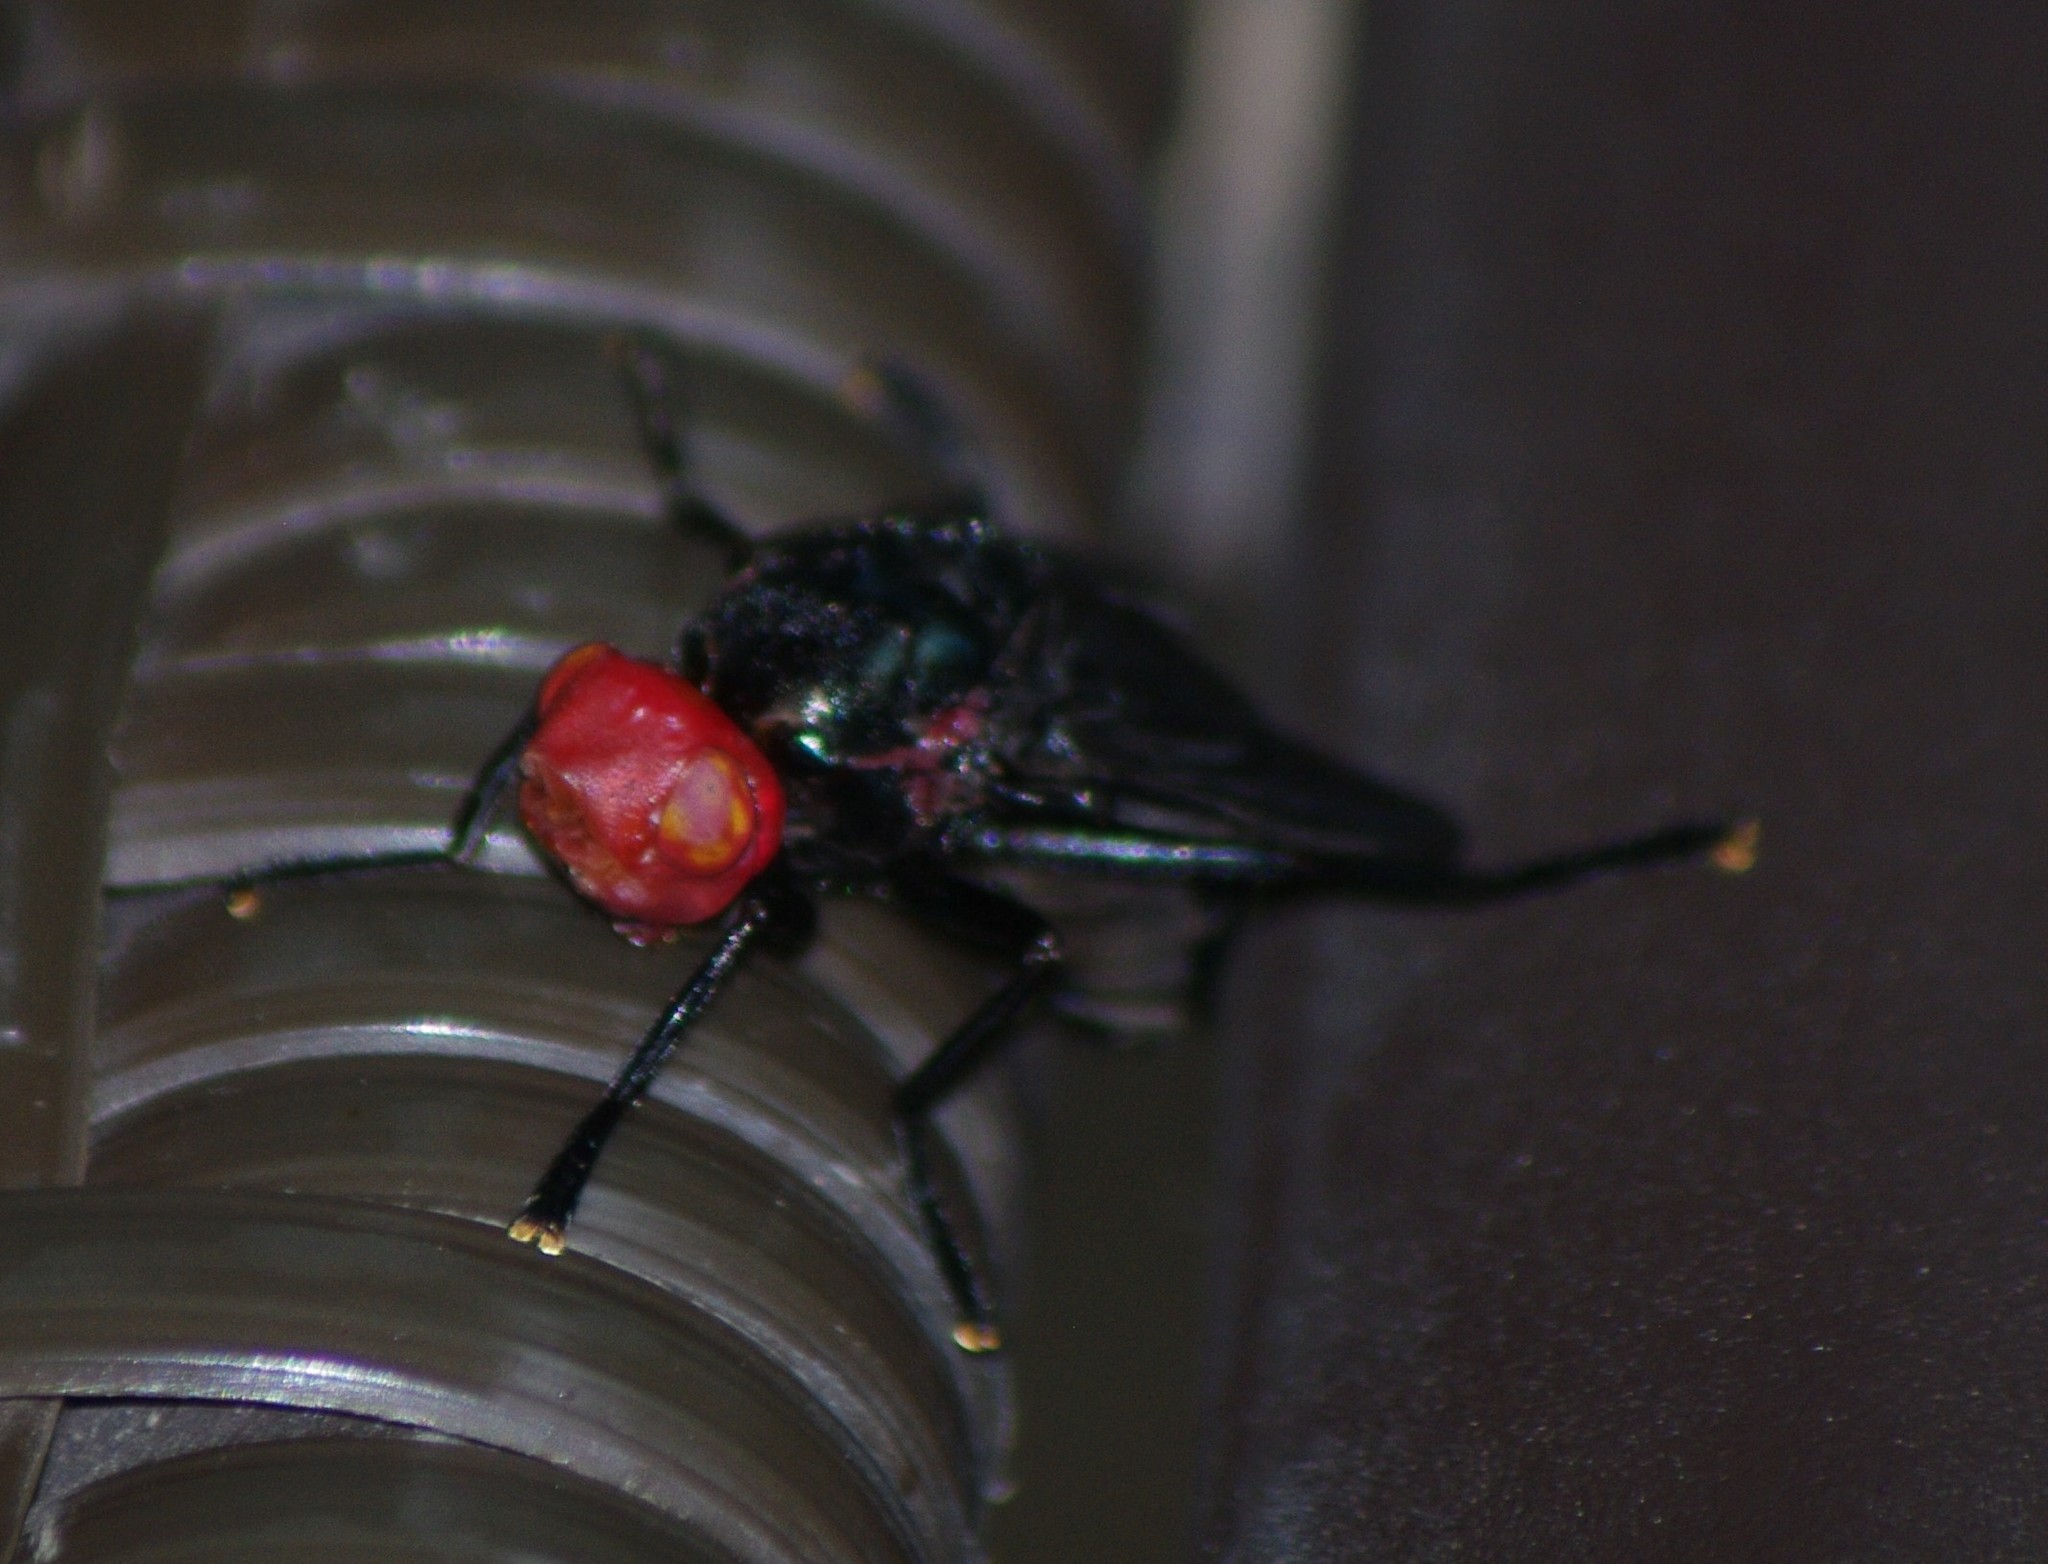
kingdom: Animalia
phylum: Arthropoda
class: Insecta
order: Diptera
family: Platystomatidae
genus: Bromophila
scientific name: Bromophila caffra
